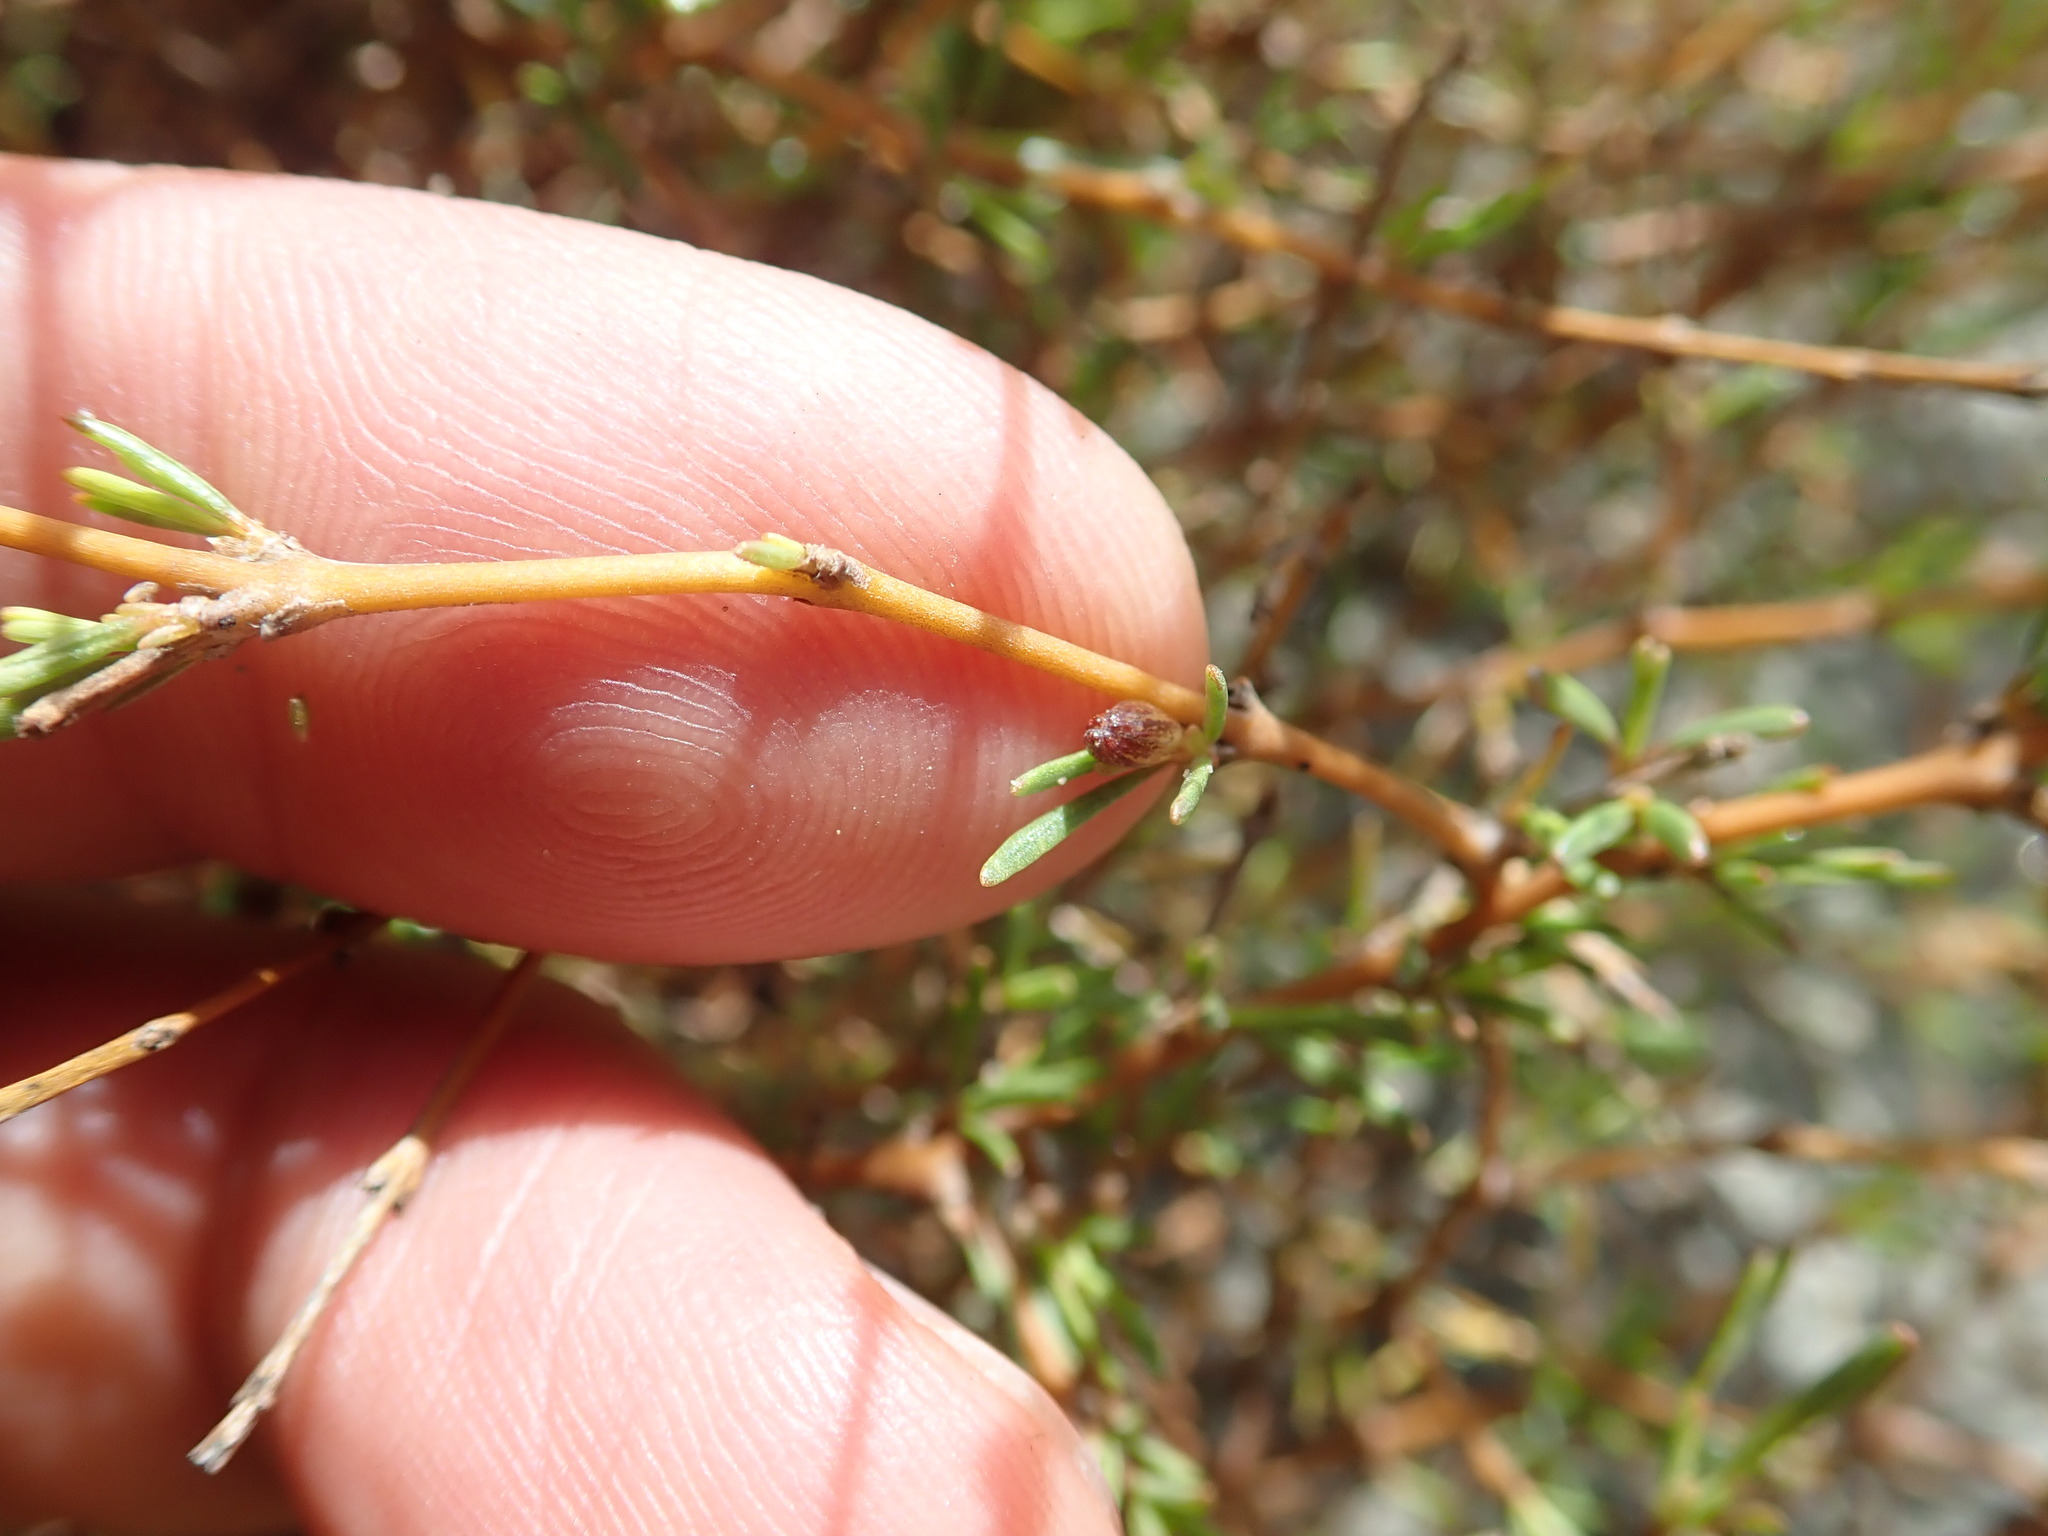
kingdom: Plantae
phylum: Tracheophyta
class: Magnoliopsida
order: Gentianales
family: Rubiaceae
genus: Coprosma
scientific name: Coprosma acerosa
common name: Sand coprosma
